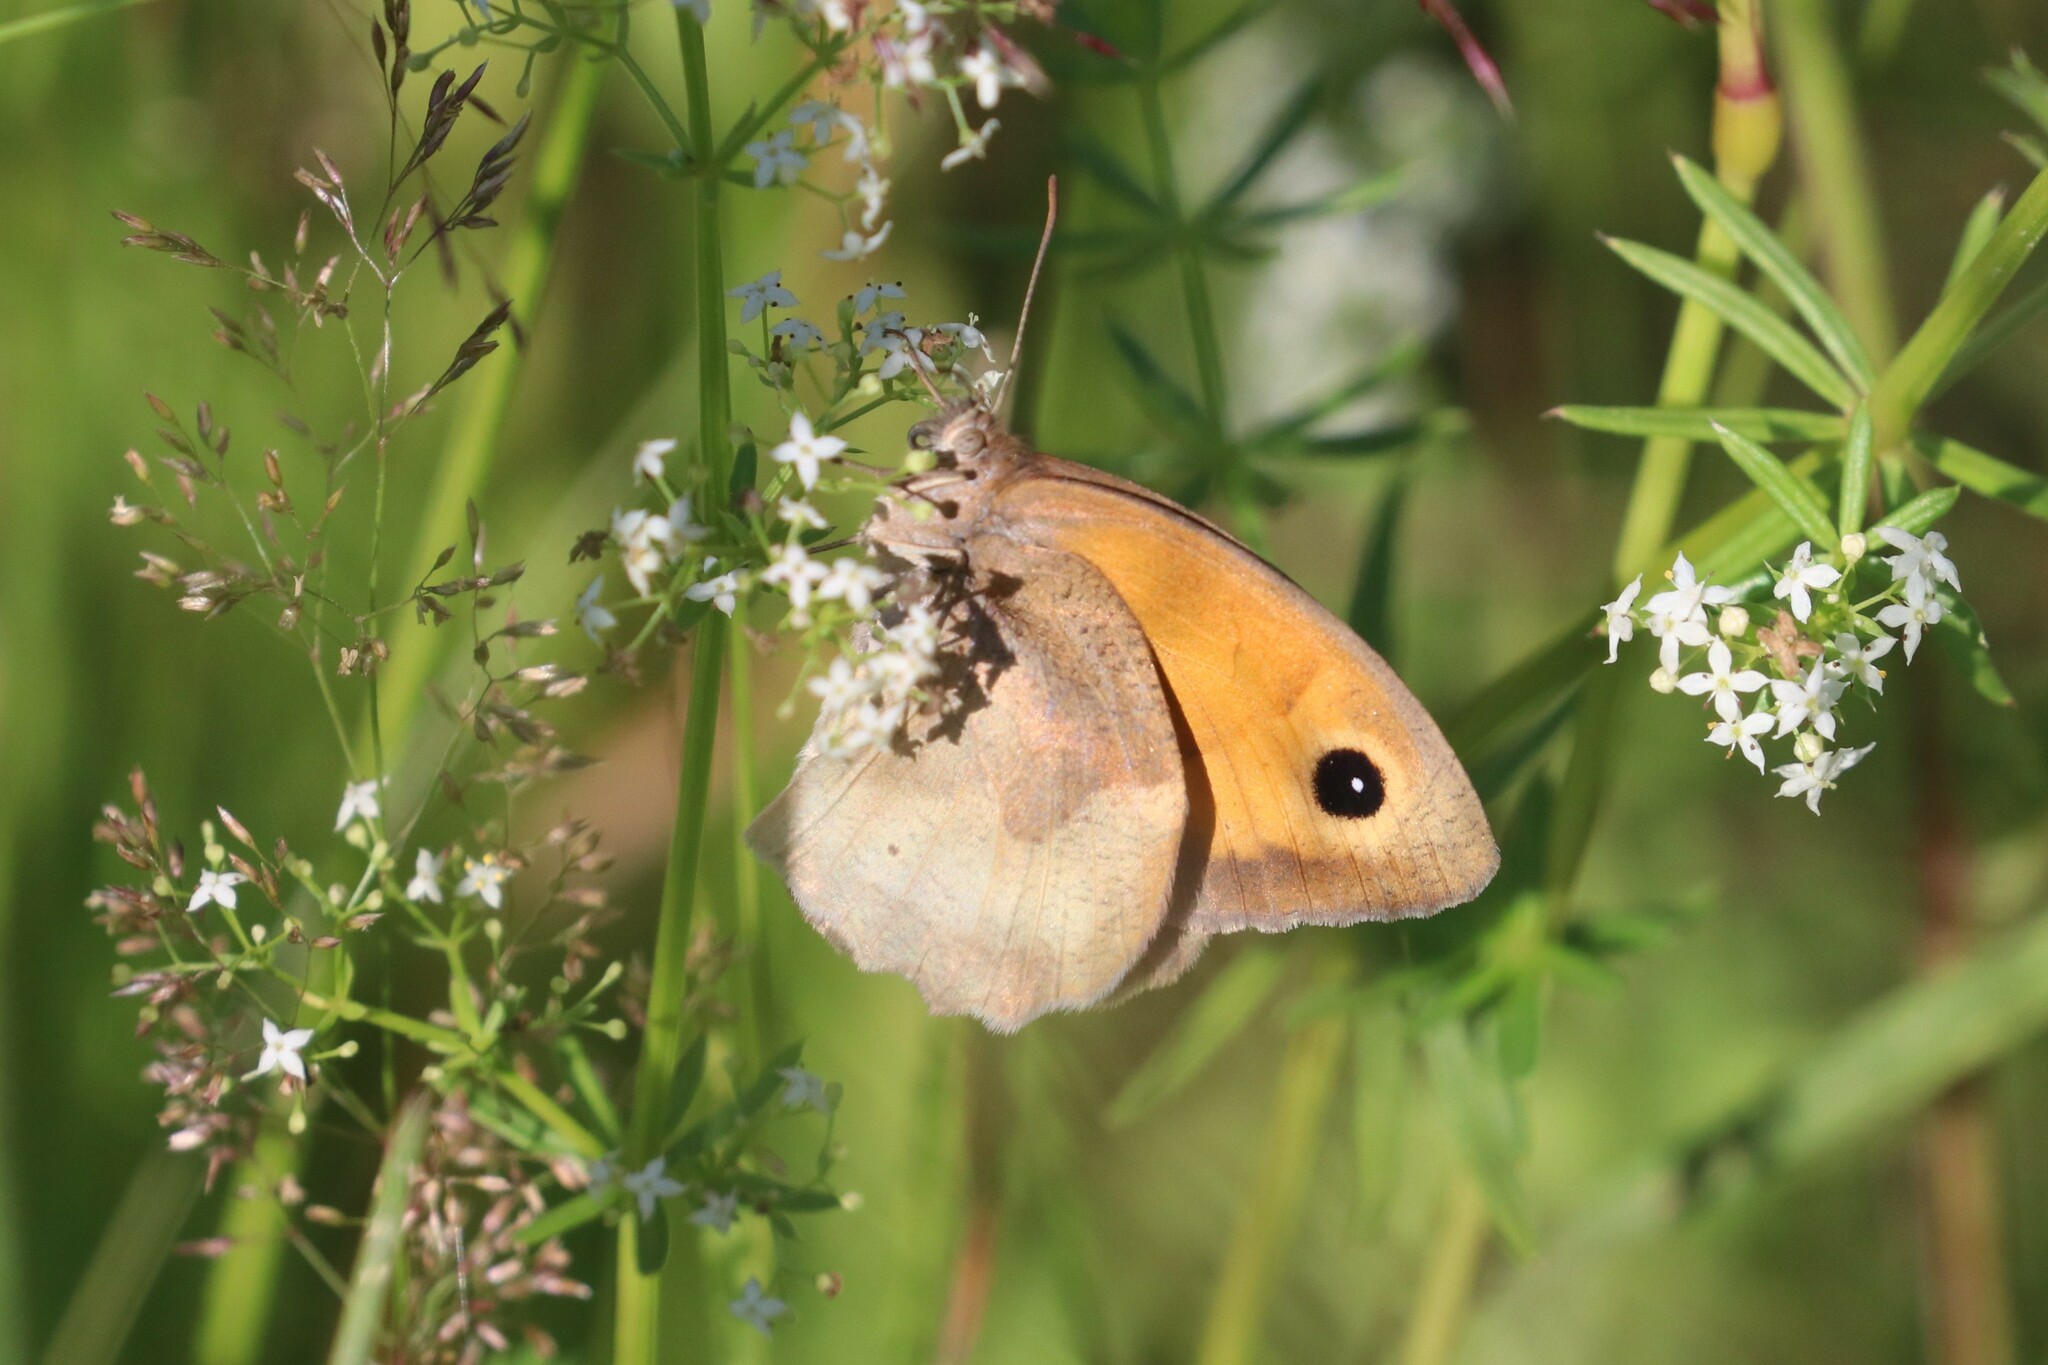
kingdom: Animalia
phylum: Arthropoda
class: Insecta
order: Lepidoptera
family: Nymphalidae
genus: Maniola
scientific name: Maniola jurtina
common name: Meadow brown
